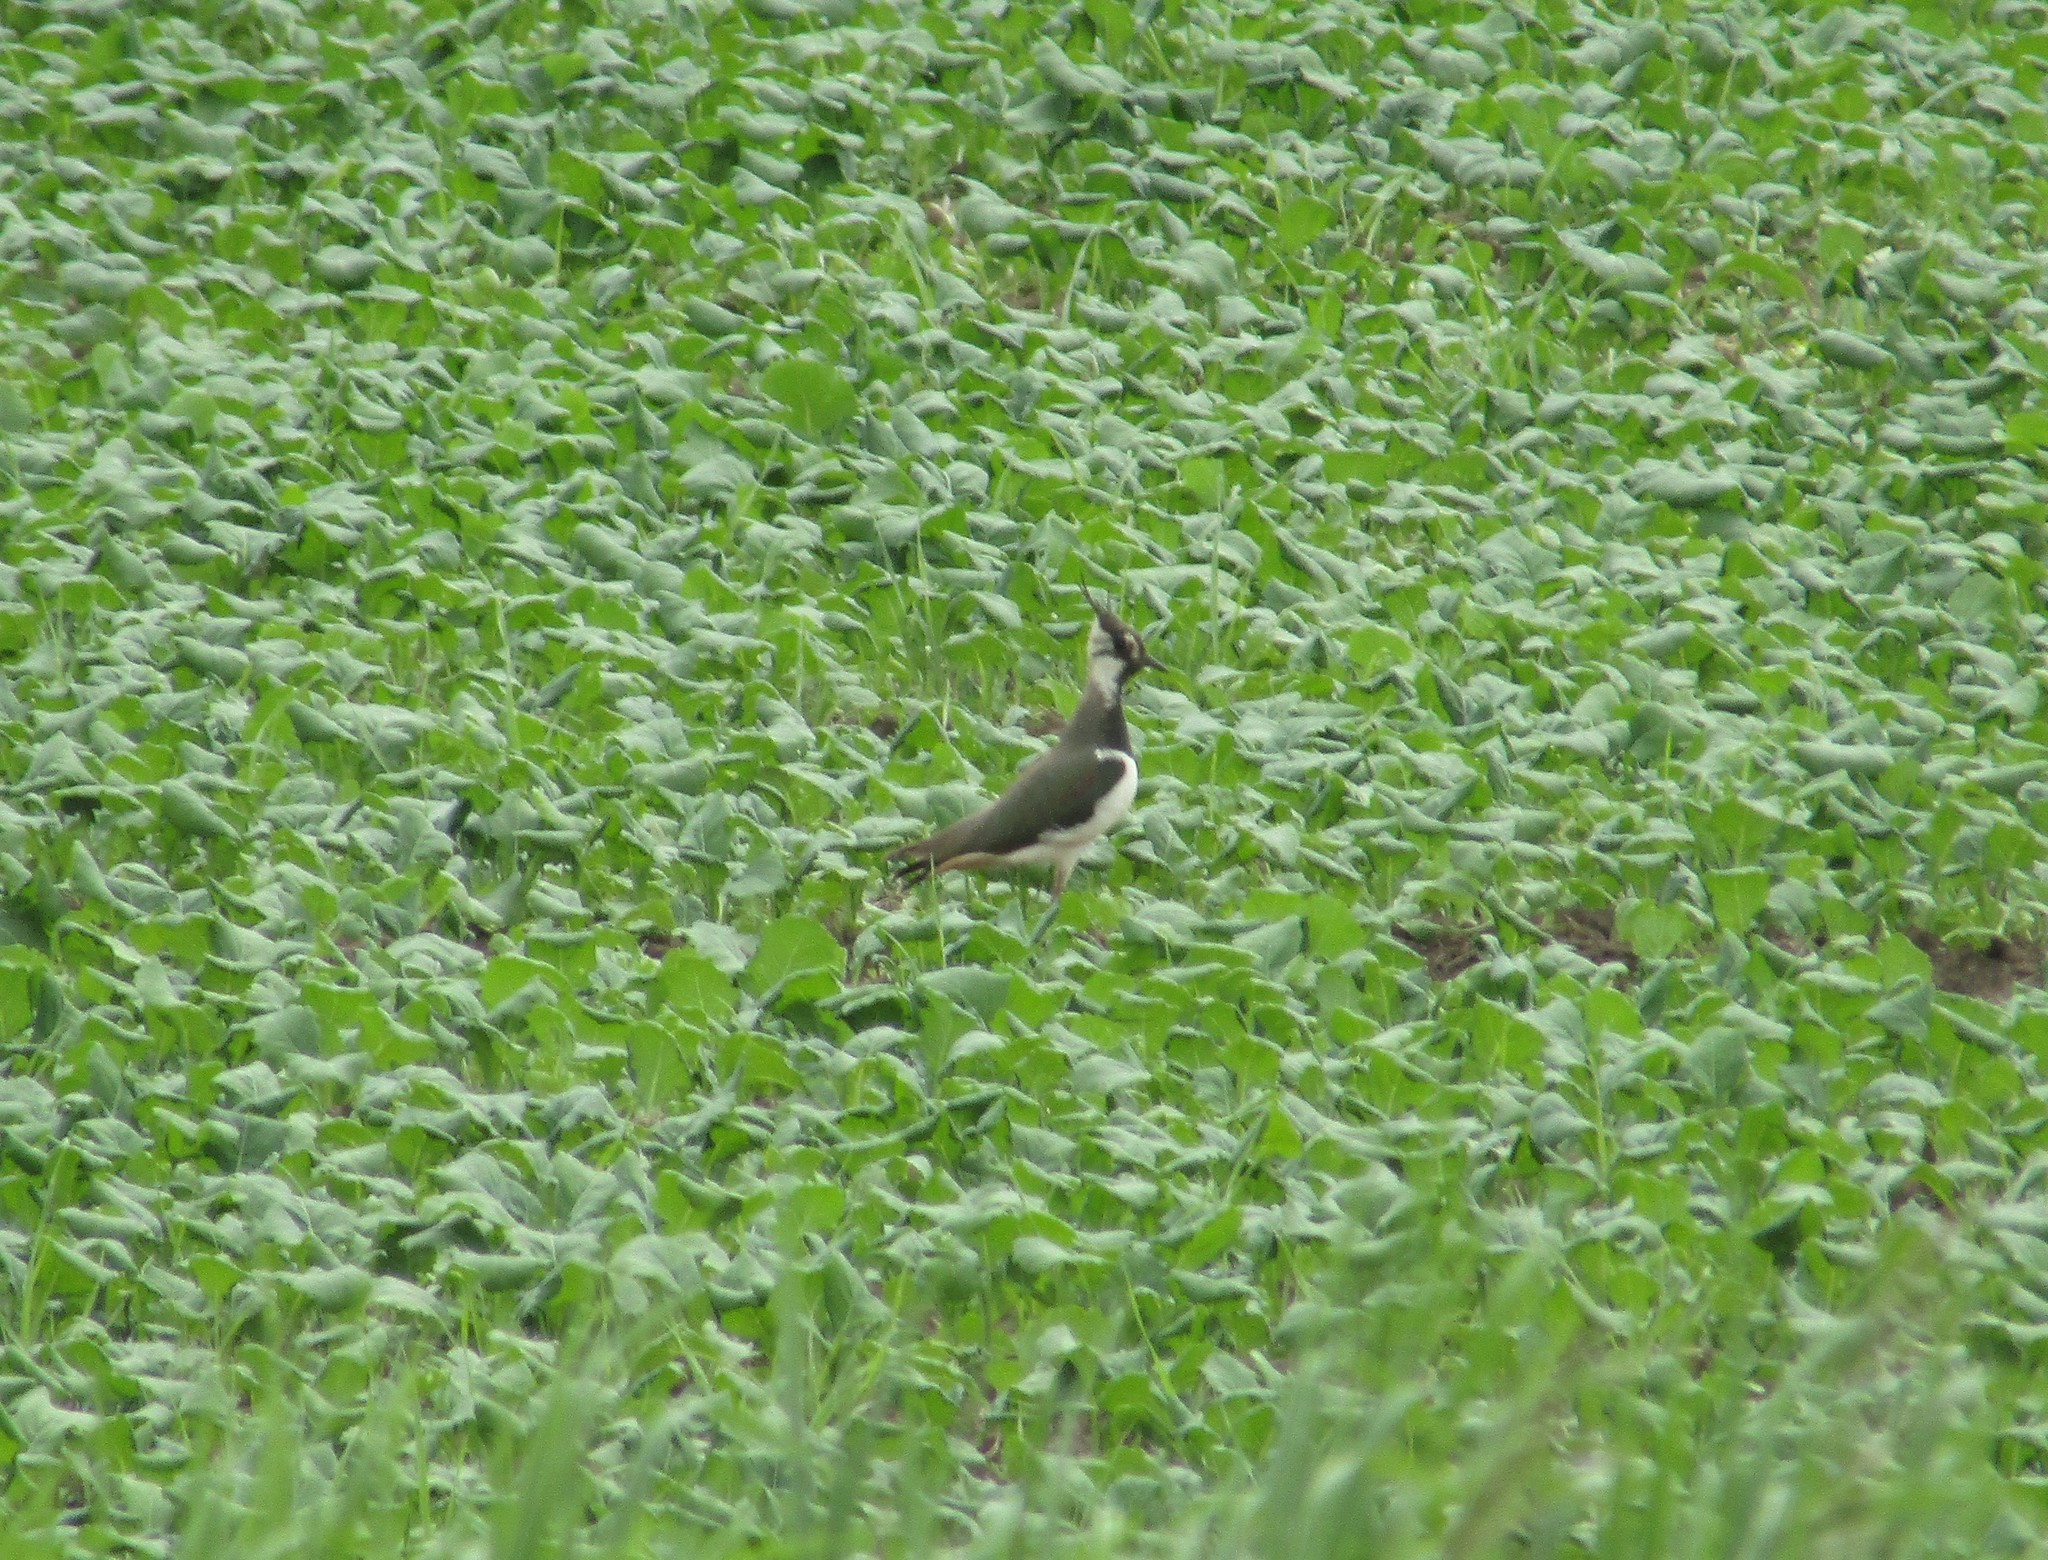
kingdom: Animalia
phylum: Chordata
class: Aves
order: Charadriiformes
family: Charadriidae
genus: Vanellus
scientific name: Vanellus vanellus
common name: Northern lapwing
